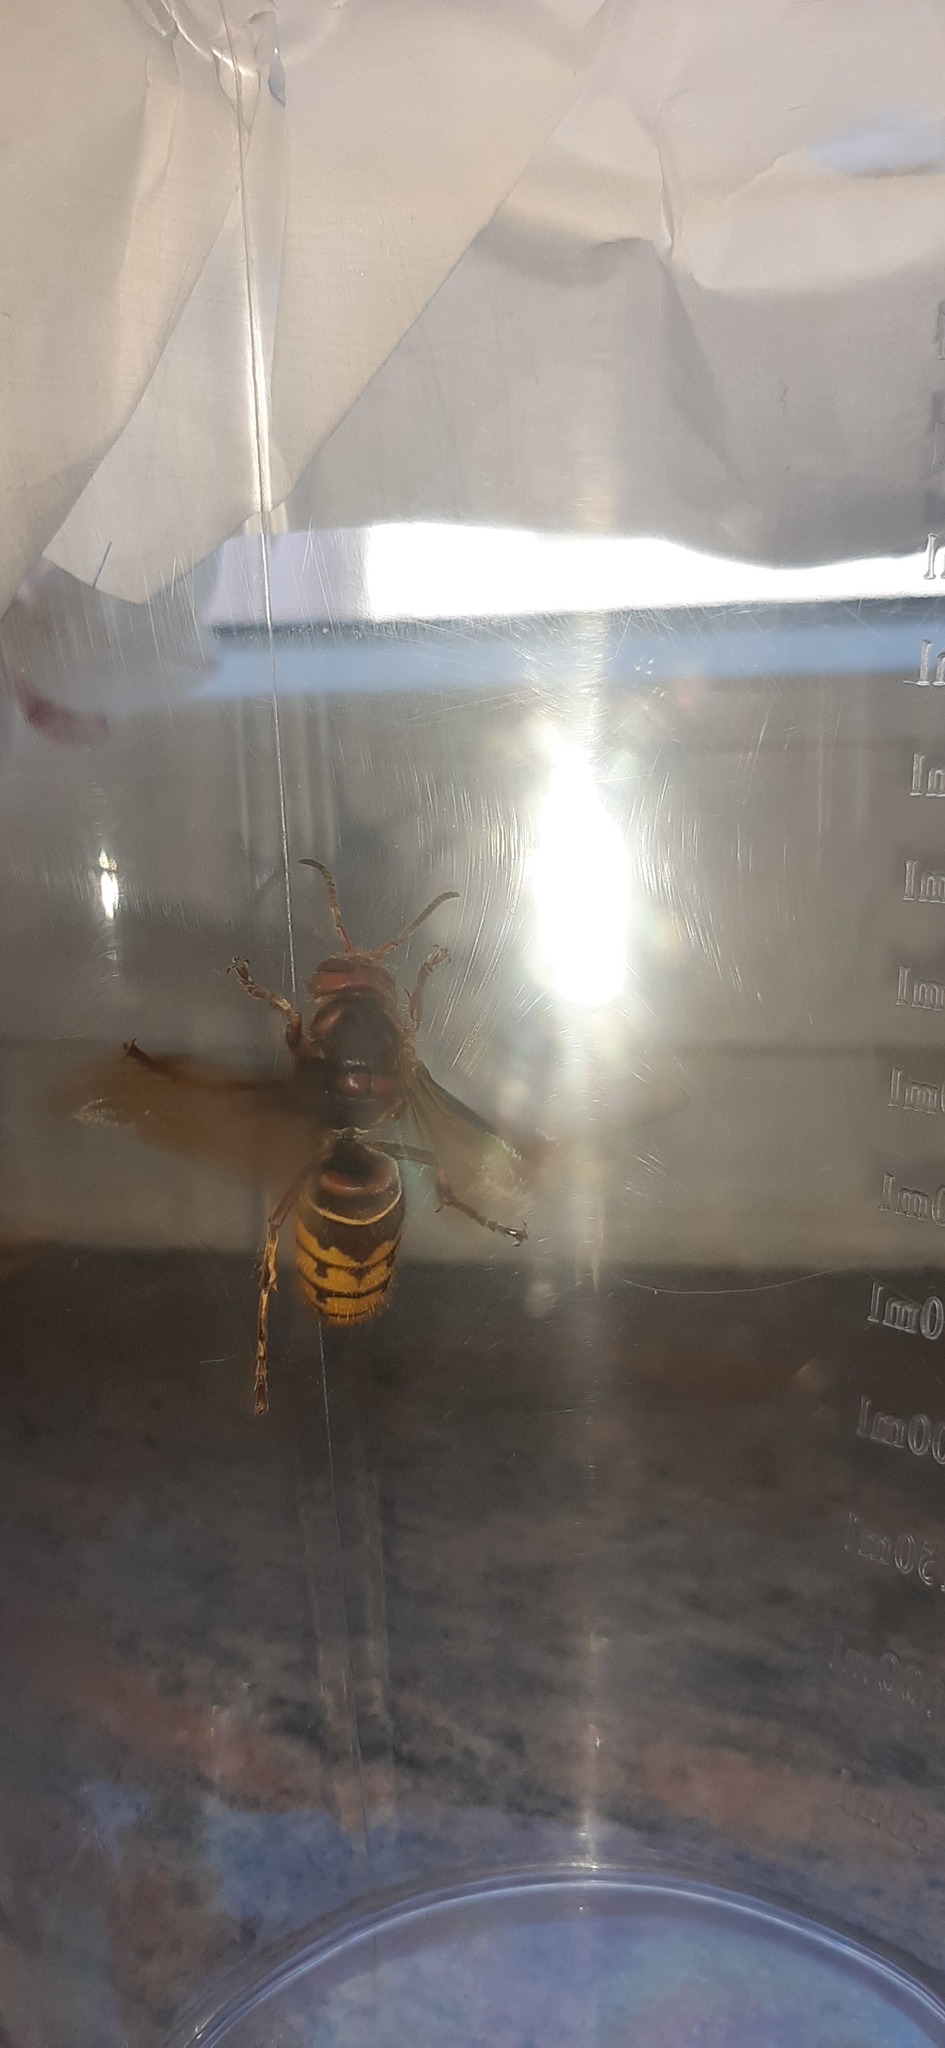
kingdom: Animalia
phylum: Arthropoda
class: Insecta
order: Hymenoptera
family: Vespidae
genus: Vespa
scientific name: Vespa crabro
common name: Hornet
